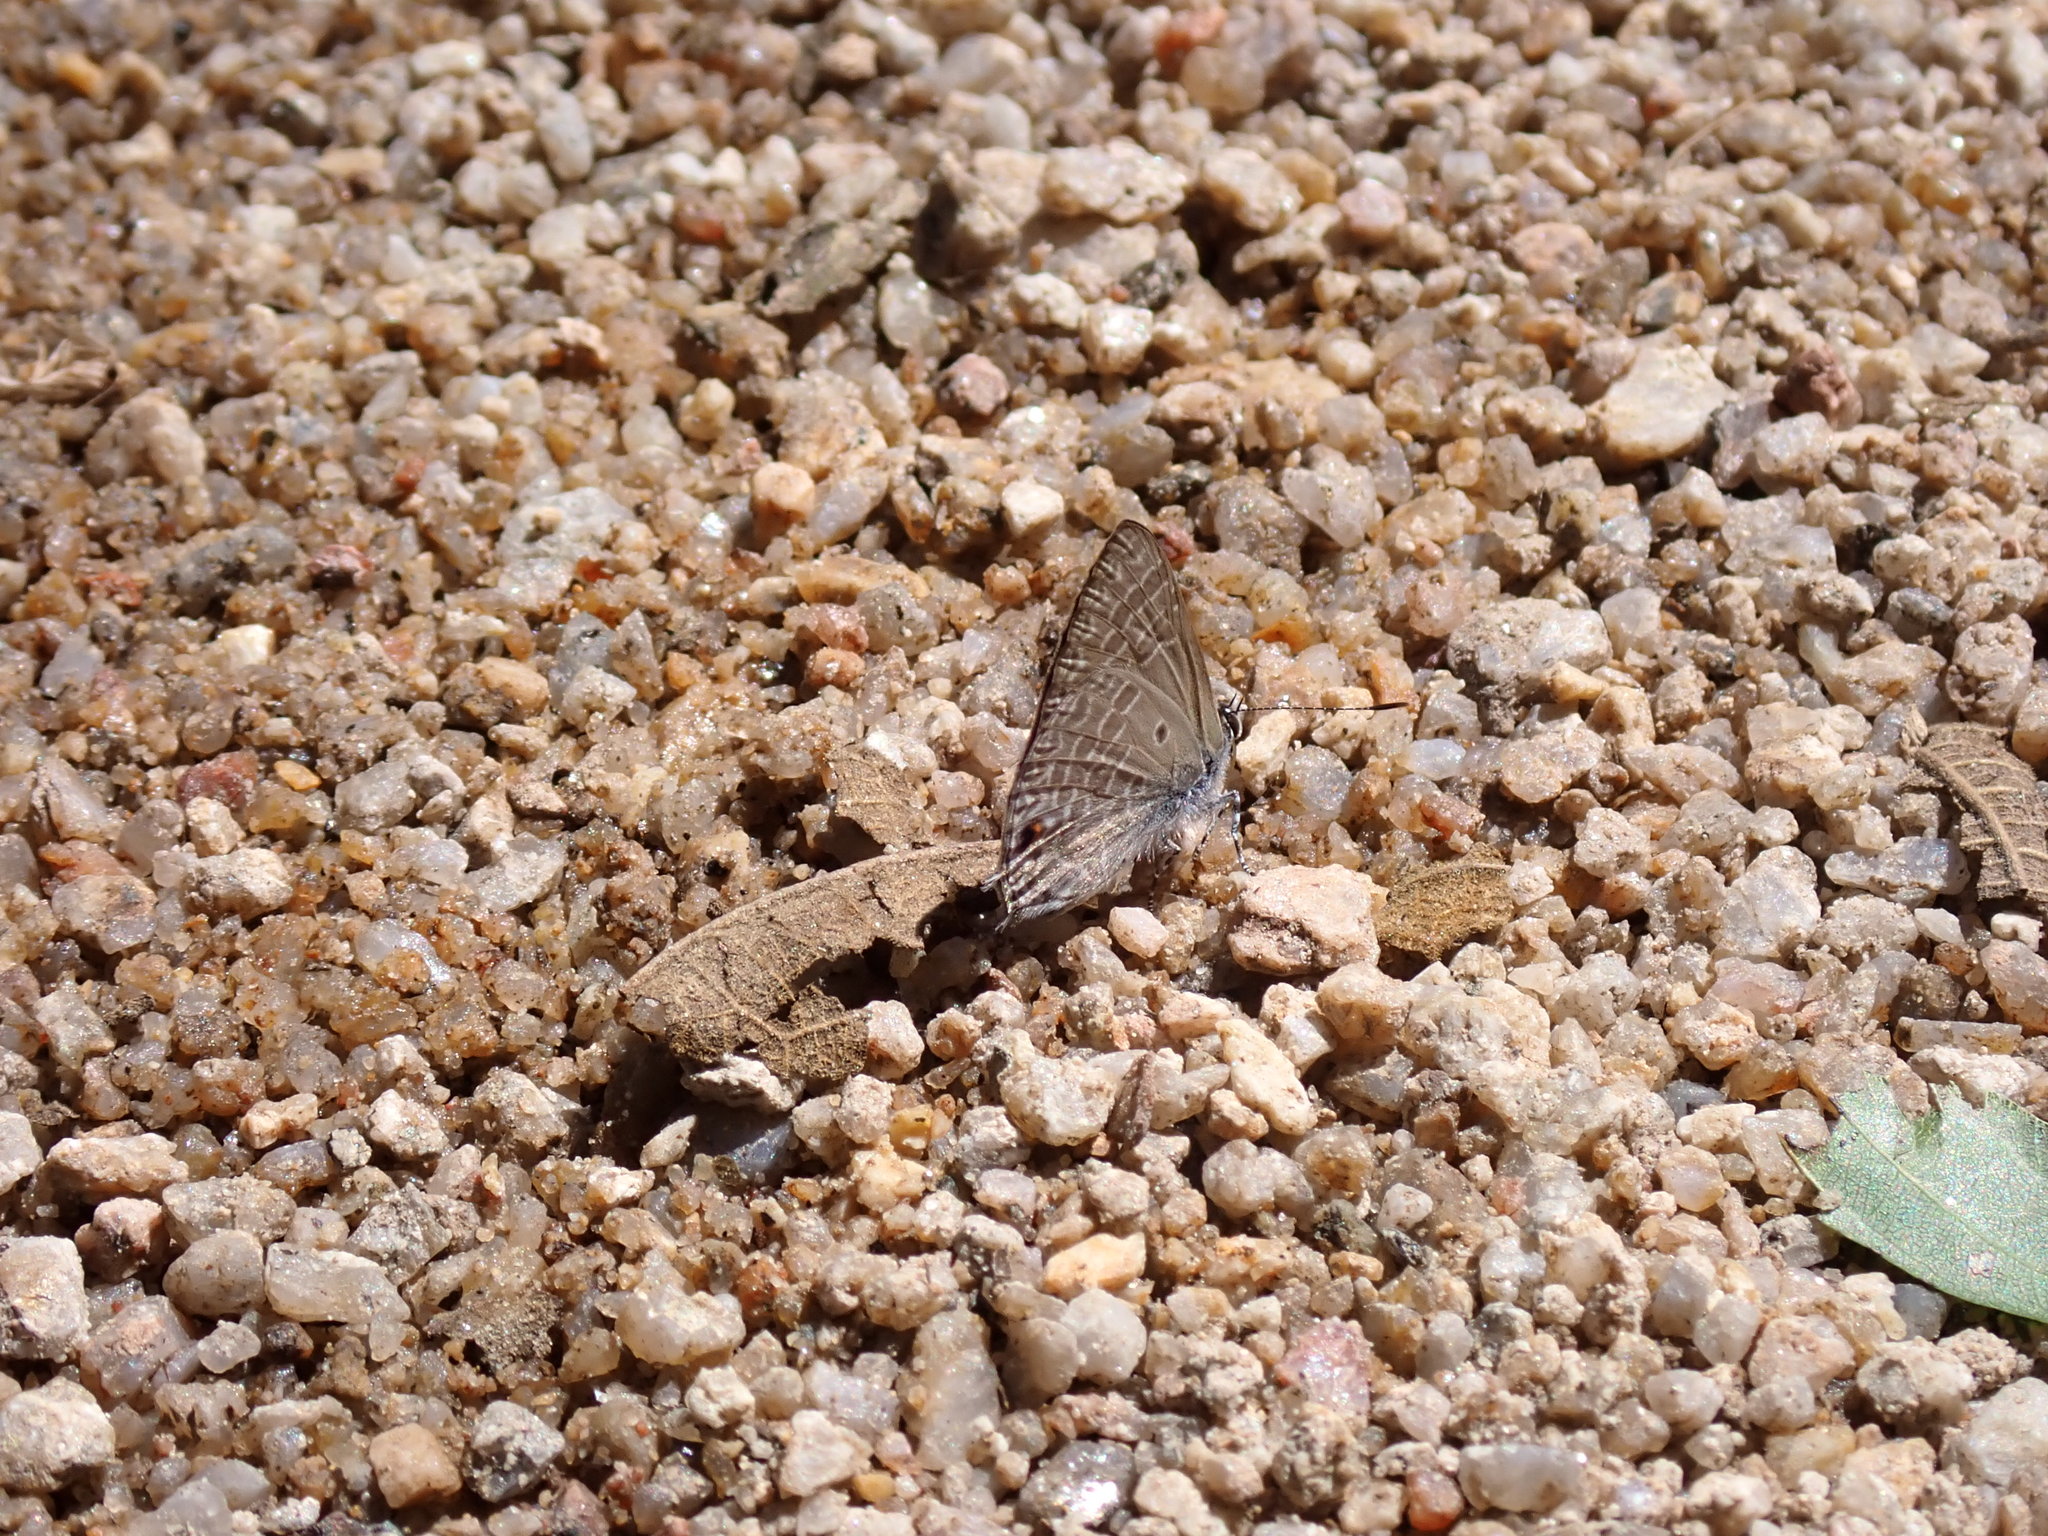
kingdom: Animalia
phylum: Arthropoda
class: Insecta
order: Lepidoptera
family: Lycaenidae
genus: Anthene
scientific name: Anthene lycaenina
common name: Pointed ciliate blue
